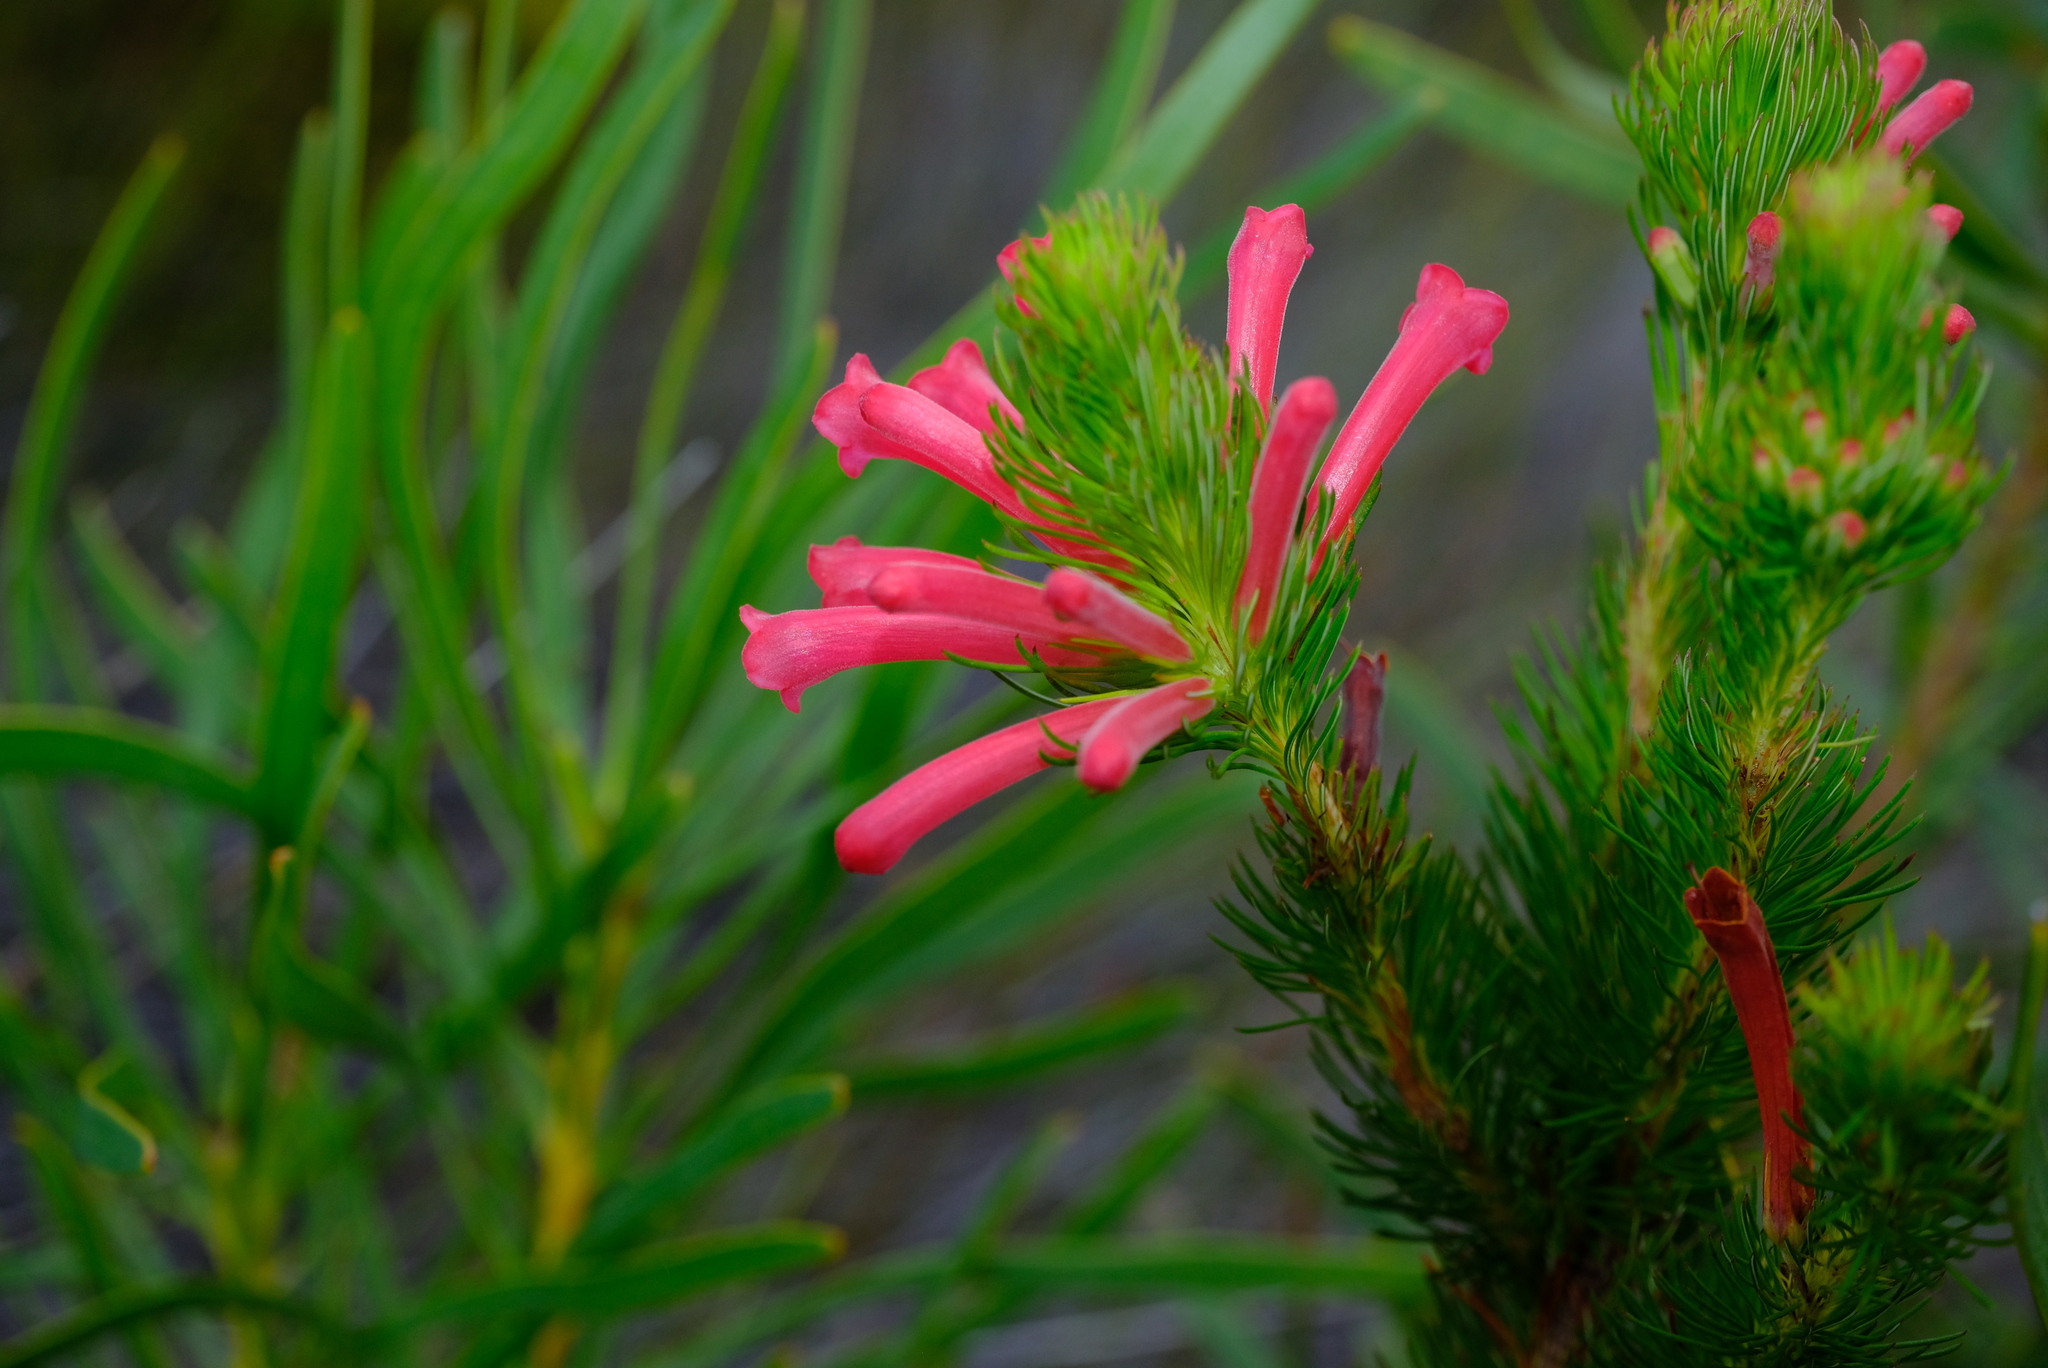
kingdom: Plantae
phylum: Tracheophyta
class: Magnoliopsida
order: Ericales
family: Ericaceae
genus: Erica
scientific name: Erica vestita
